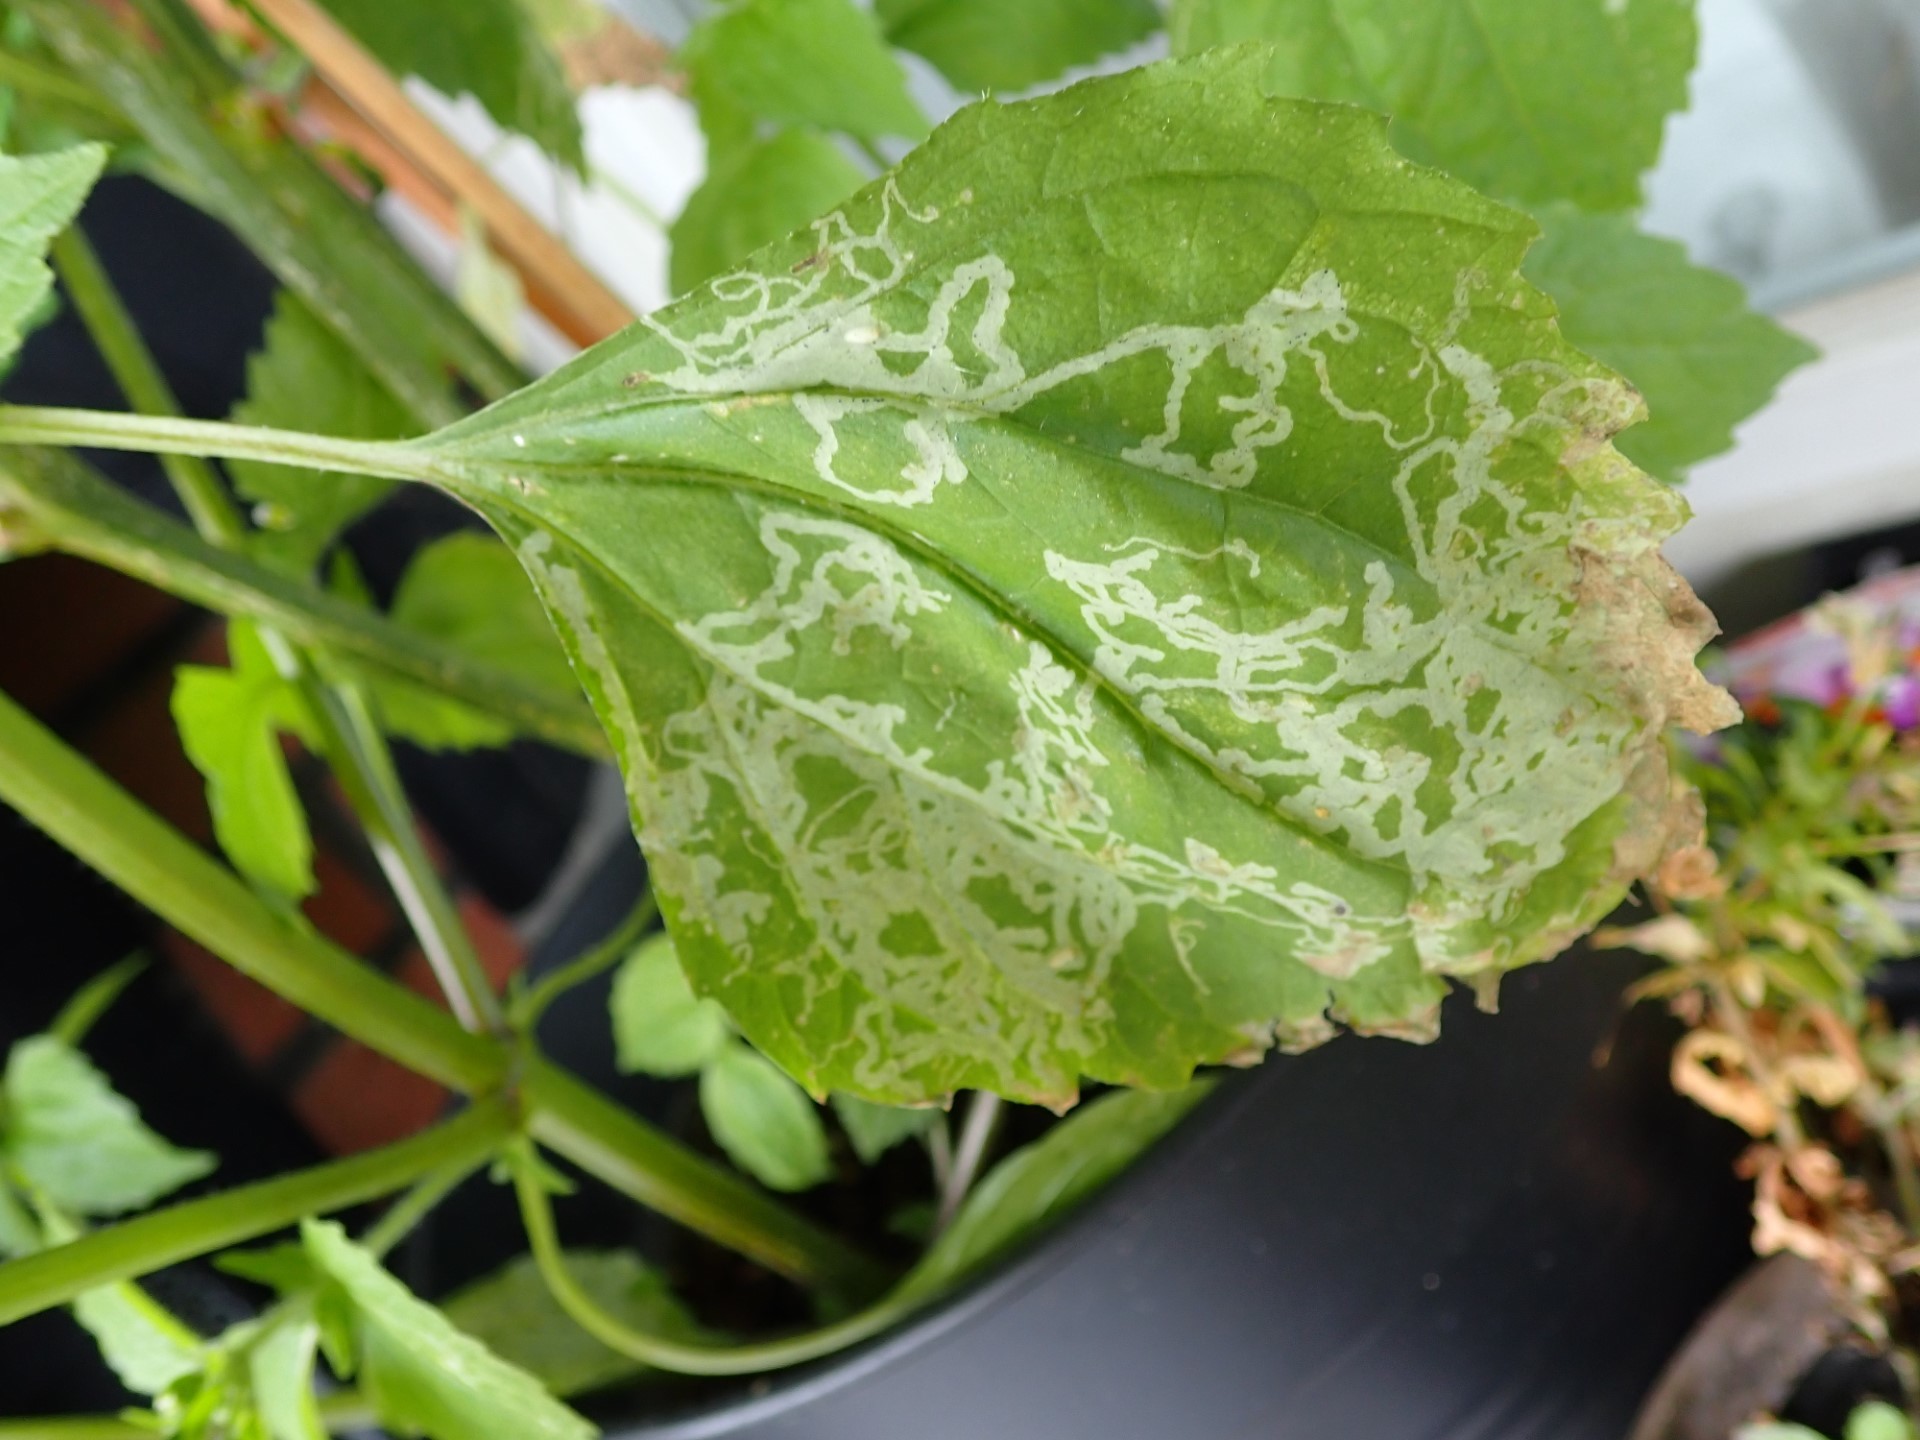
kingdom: Plantae
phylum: Tracheophyta
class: Magnoliopsida
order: Asterales
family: Asteraceae
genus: Galinsoga
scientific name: Galinsoga quadriradiata
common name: Shaggy soldier
